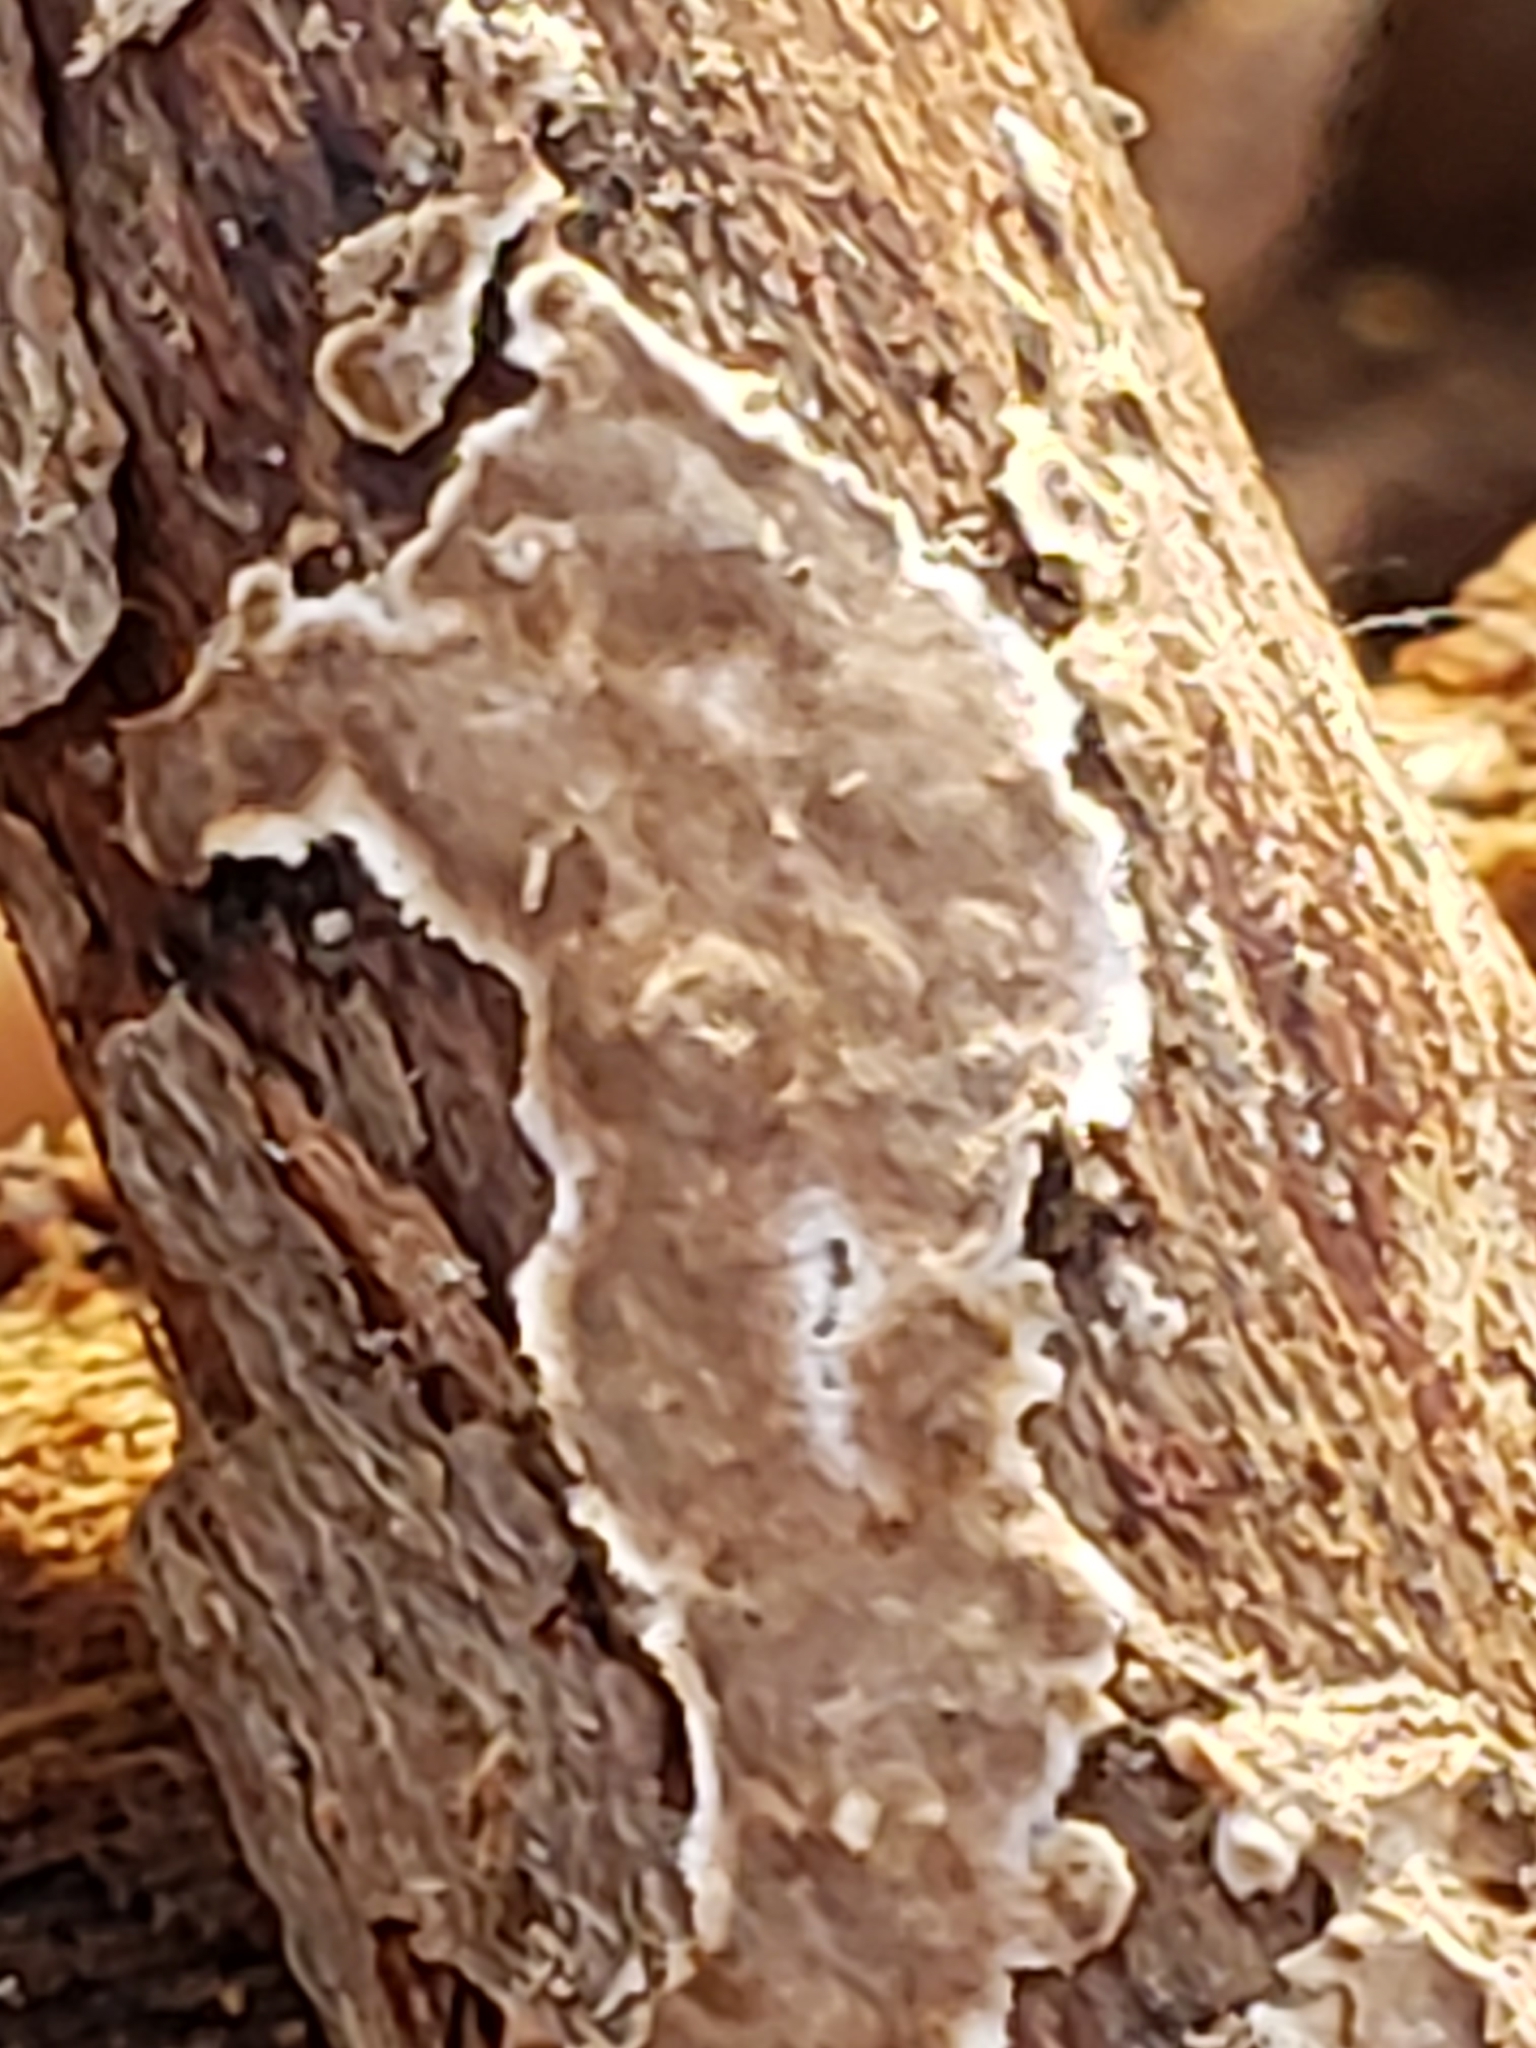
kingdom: Fungi
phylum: Basidiomycota
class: Agaricomycetes
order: Russulales
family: Peniophoraceae
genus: Peniophora
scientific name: Peniophora albobadia
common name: Giraffe spots
